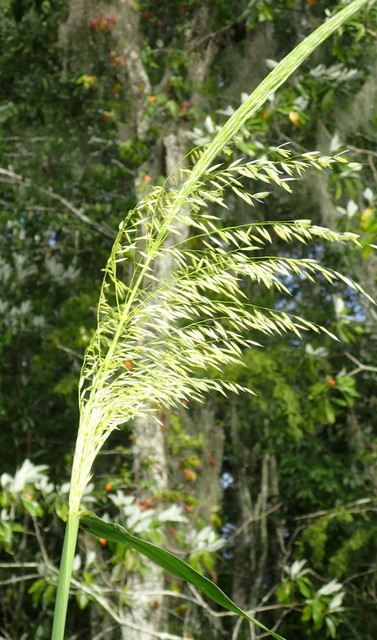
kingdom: Plantae
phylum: Tracheophyta
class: Liliopsida
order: Poales
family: Poaceae
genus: Zizania
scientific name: Zizania aquatica
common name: Annual wildrice
